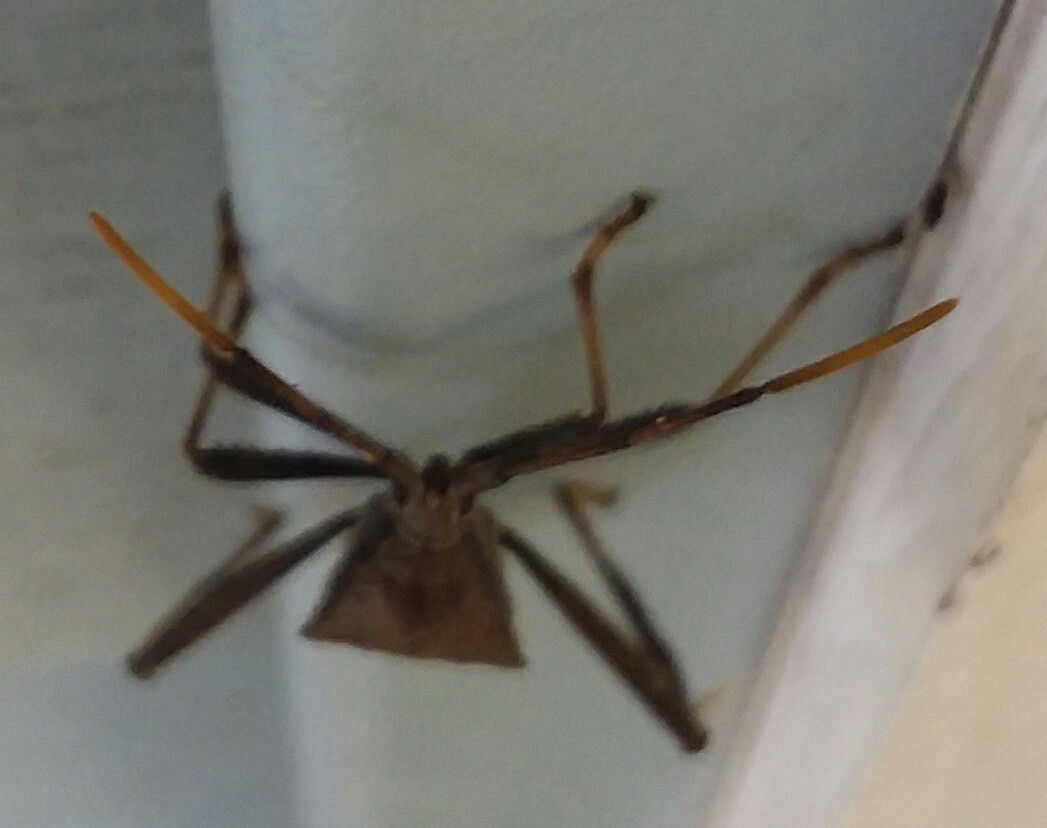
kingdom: Animalia
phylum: Arthropoda
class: Insecta
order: Hemiptera
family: Coreidae
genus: Acanthocephala
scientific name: Acanthocephala terminalis
